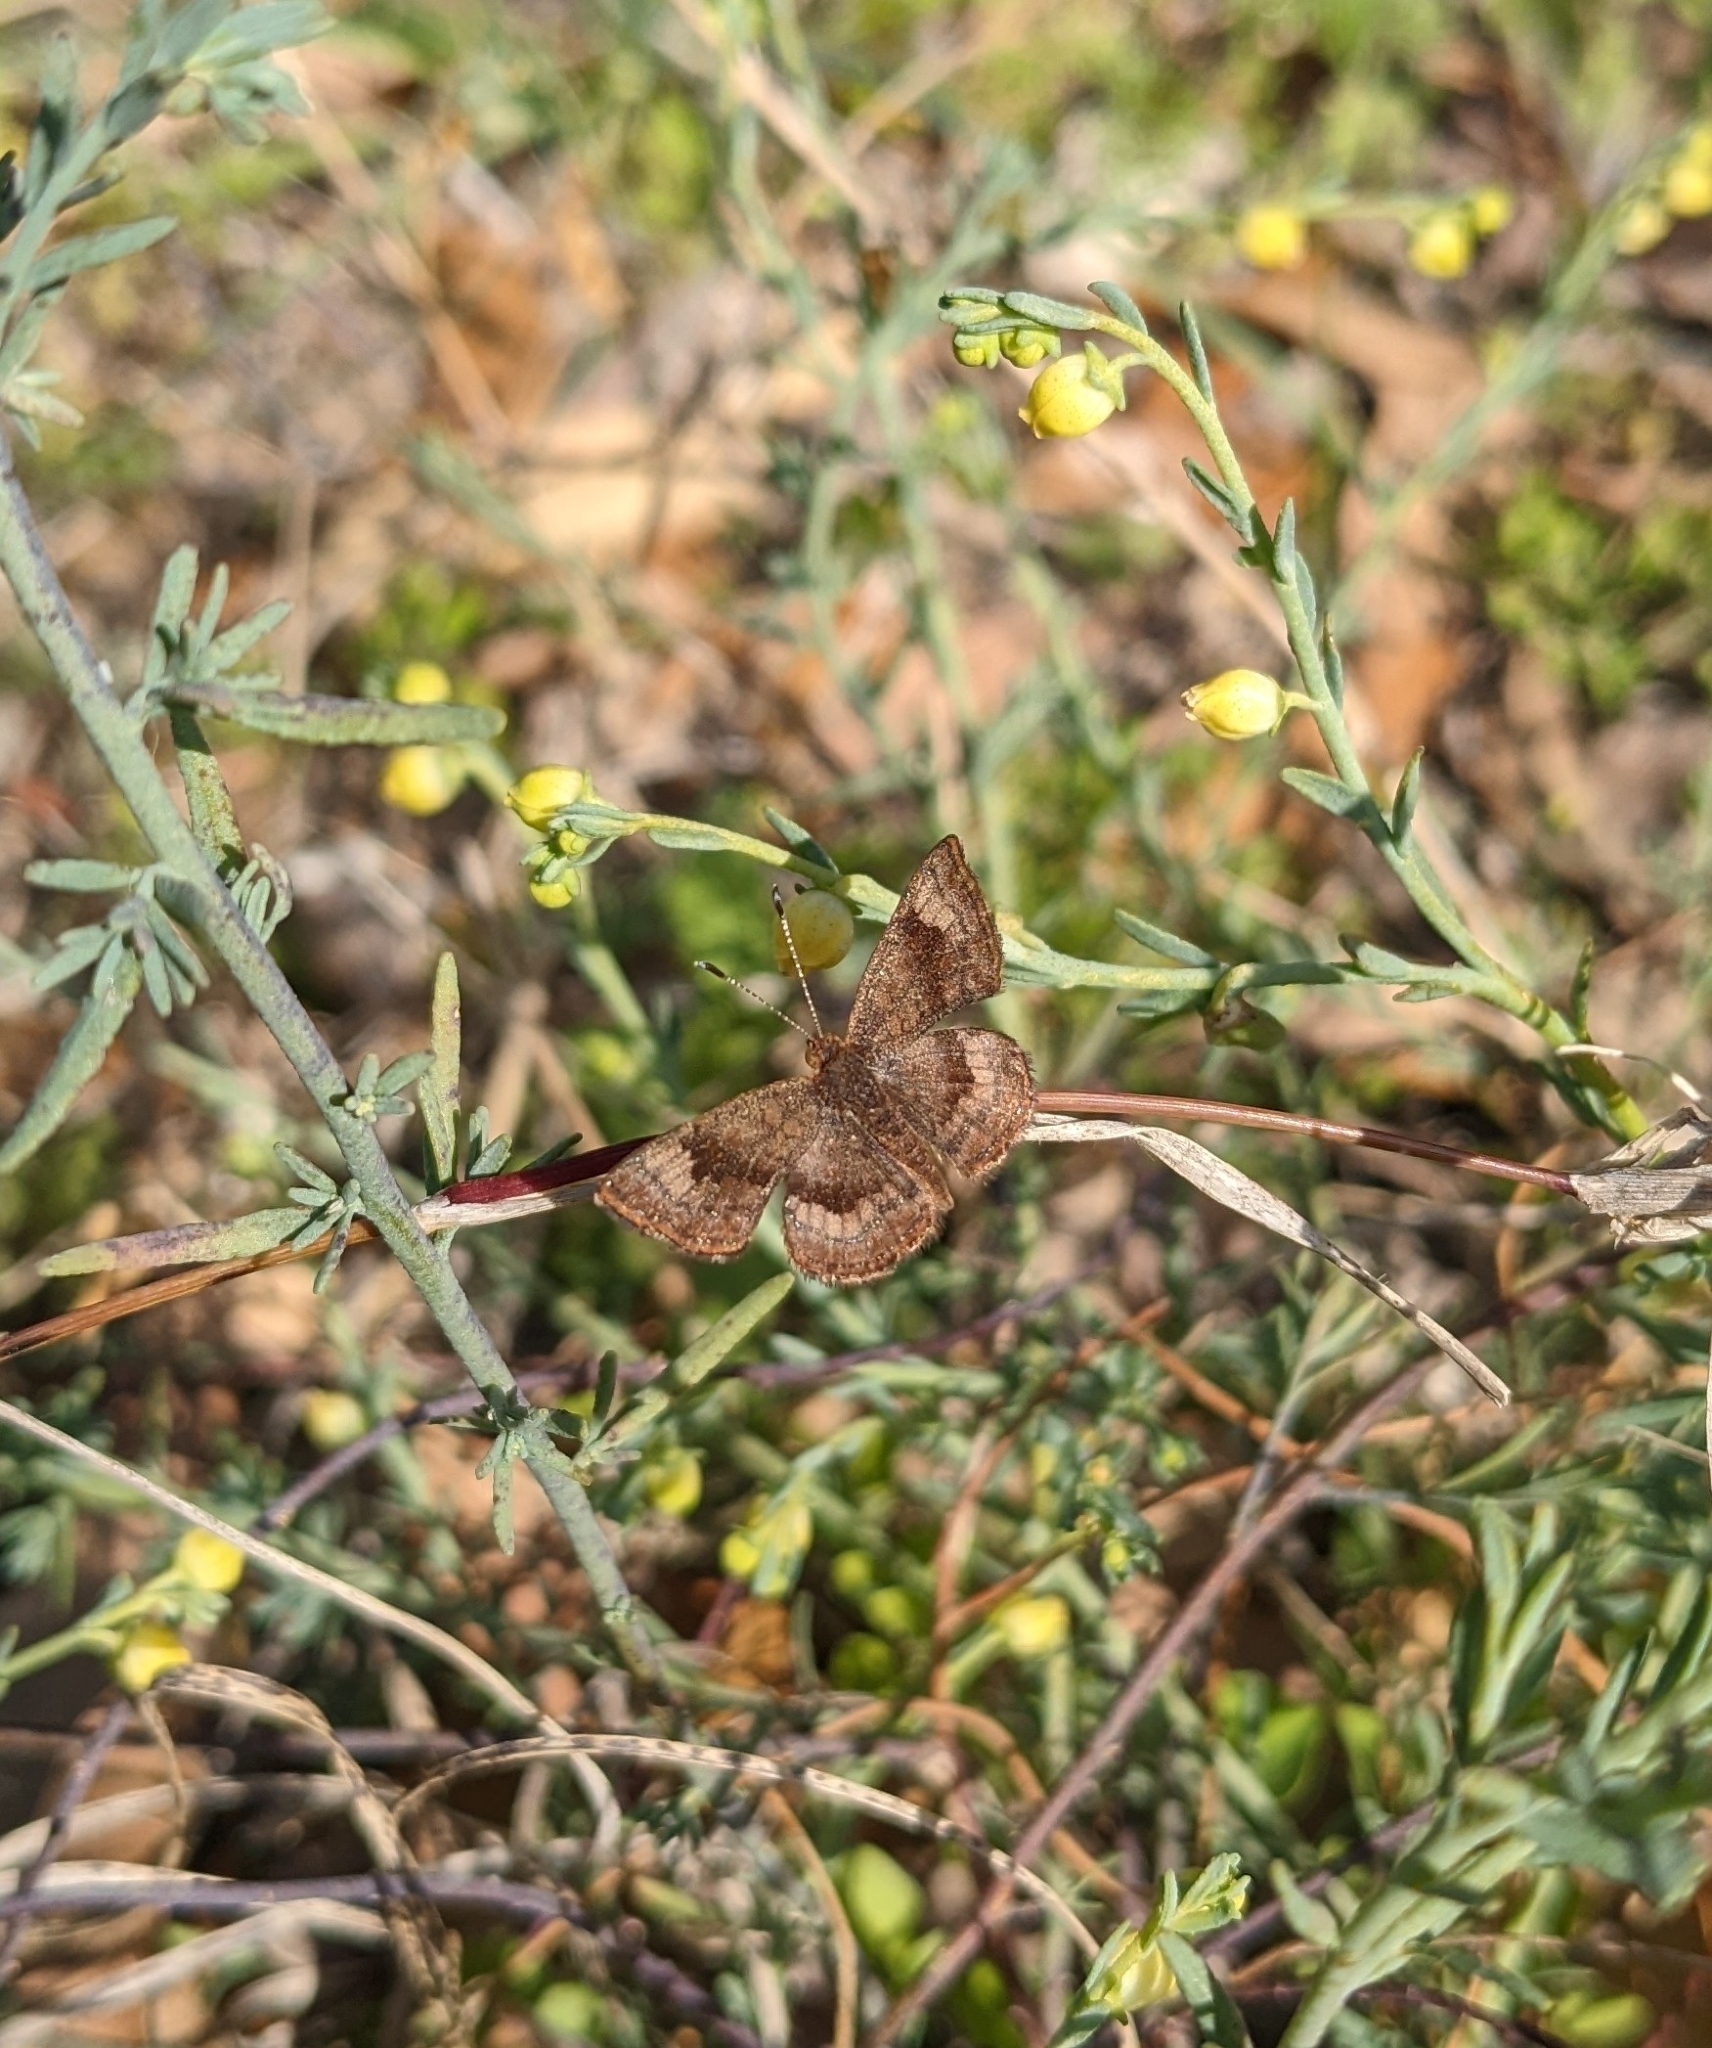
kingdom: Animalia
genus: Calephelis
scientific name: Calephelis nemesis
